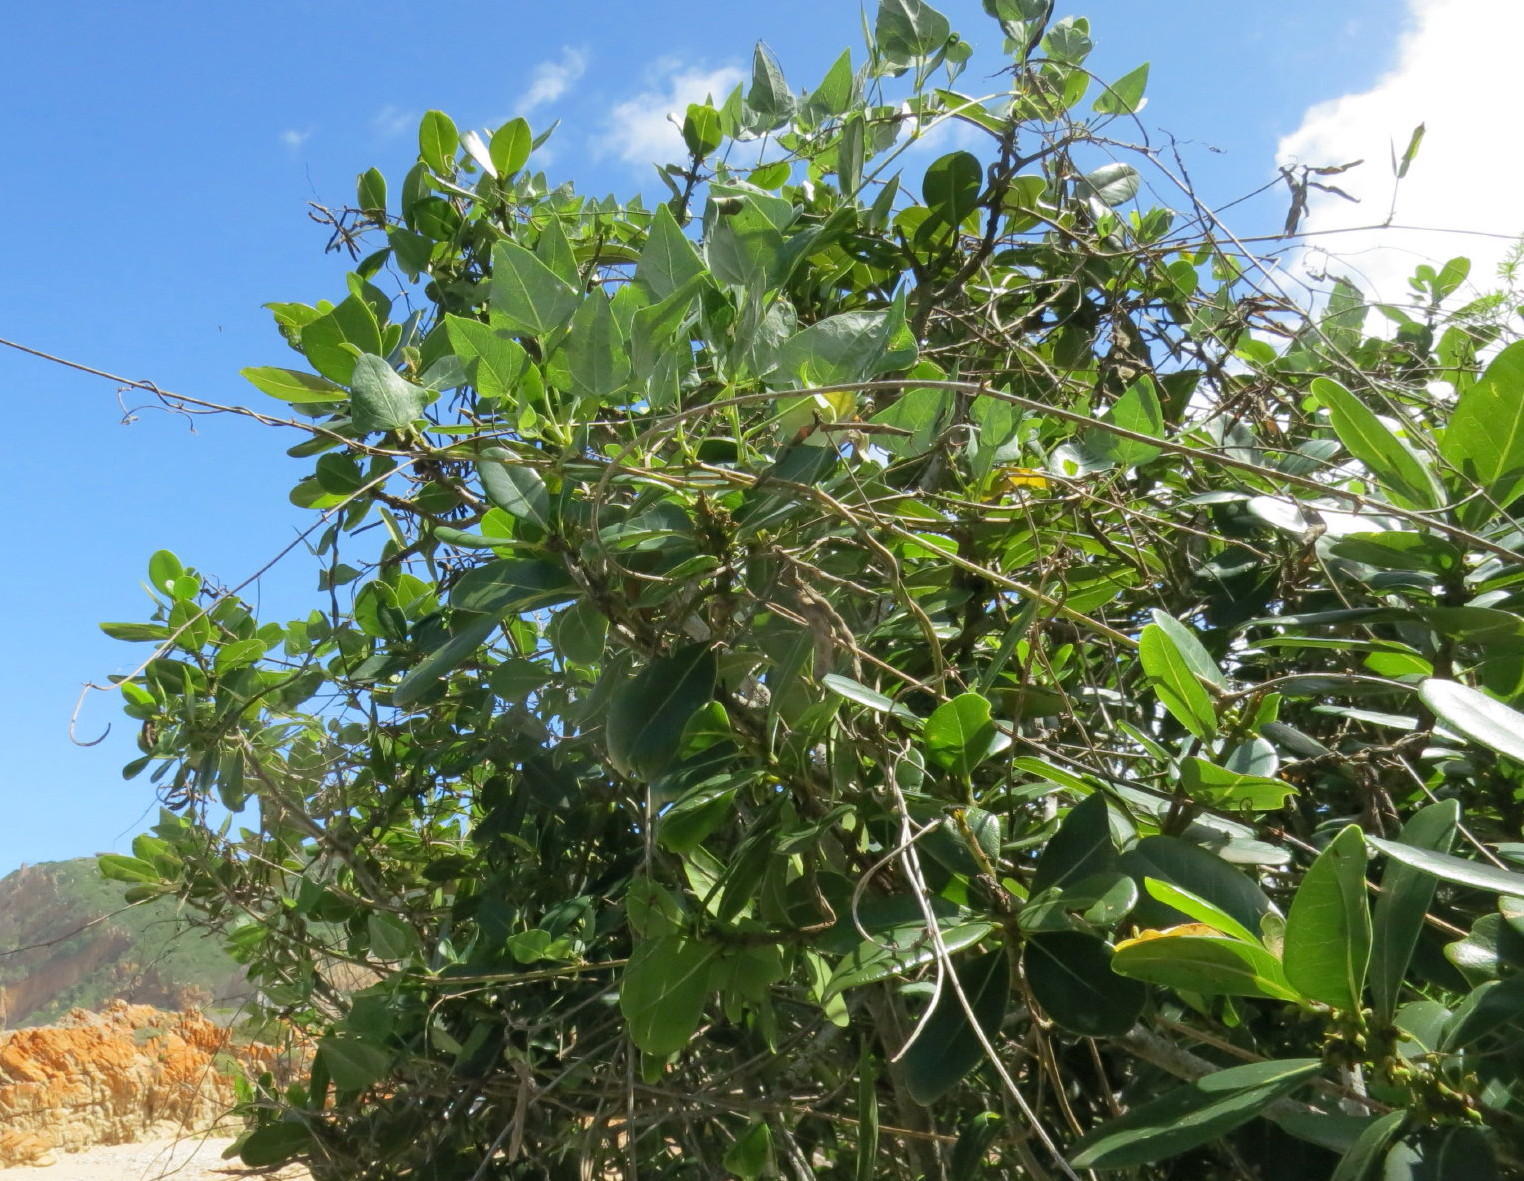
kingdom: Plantae
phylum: Tracheophyta
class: Magnoliopsida
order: Ericales
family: Sapotaceae
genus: Sideroxylon
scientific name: Sideroxylon inerme
